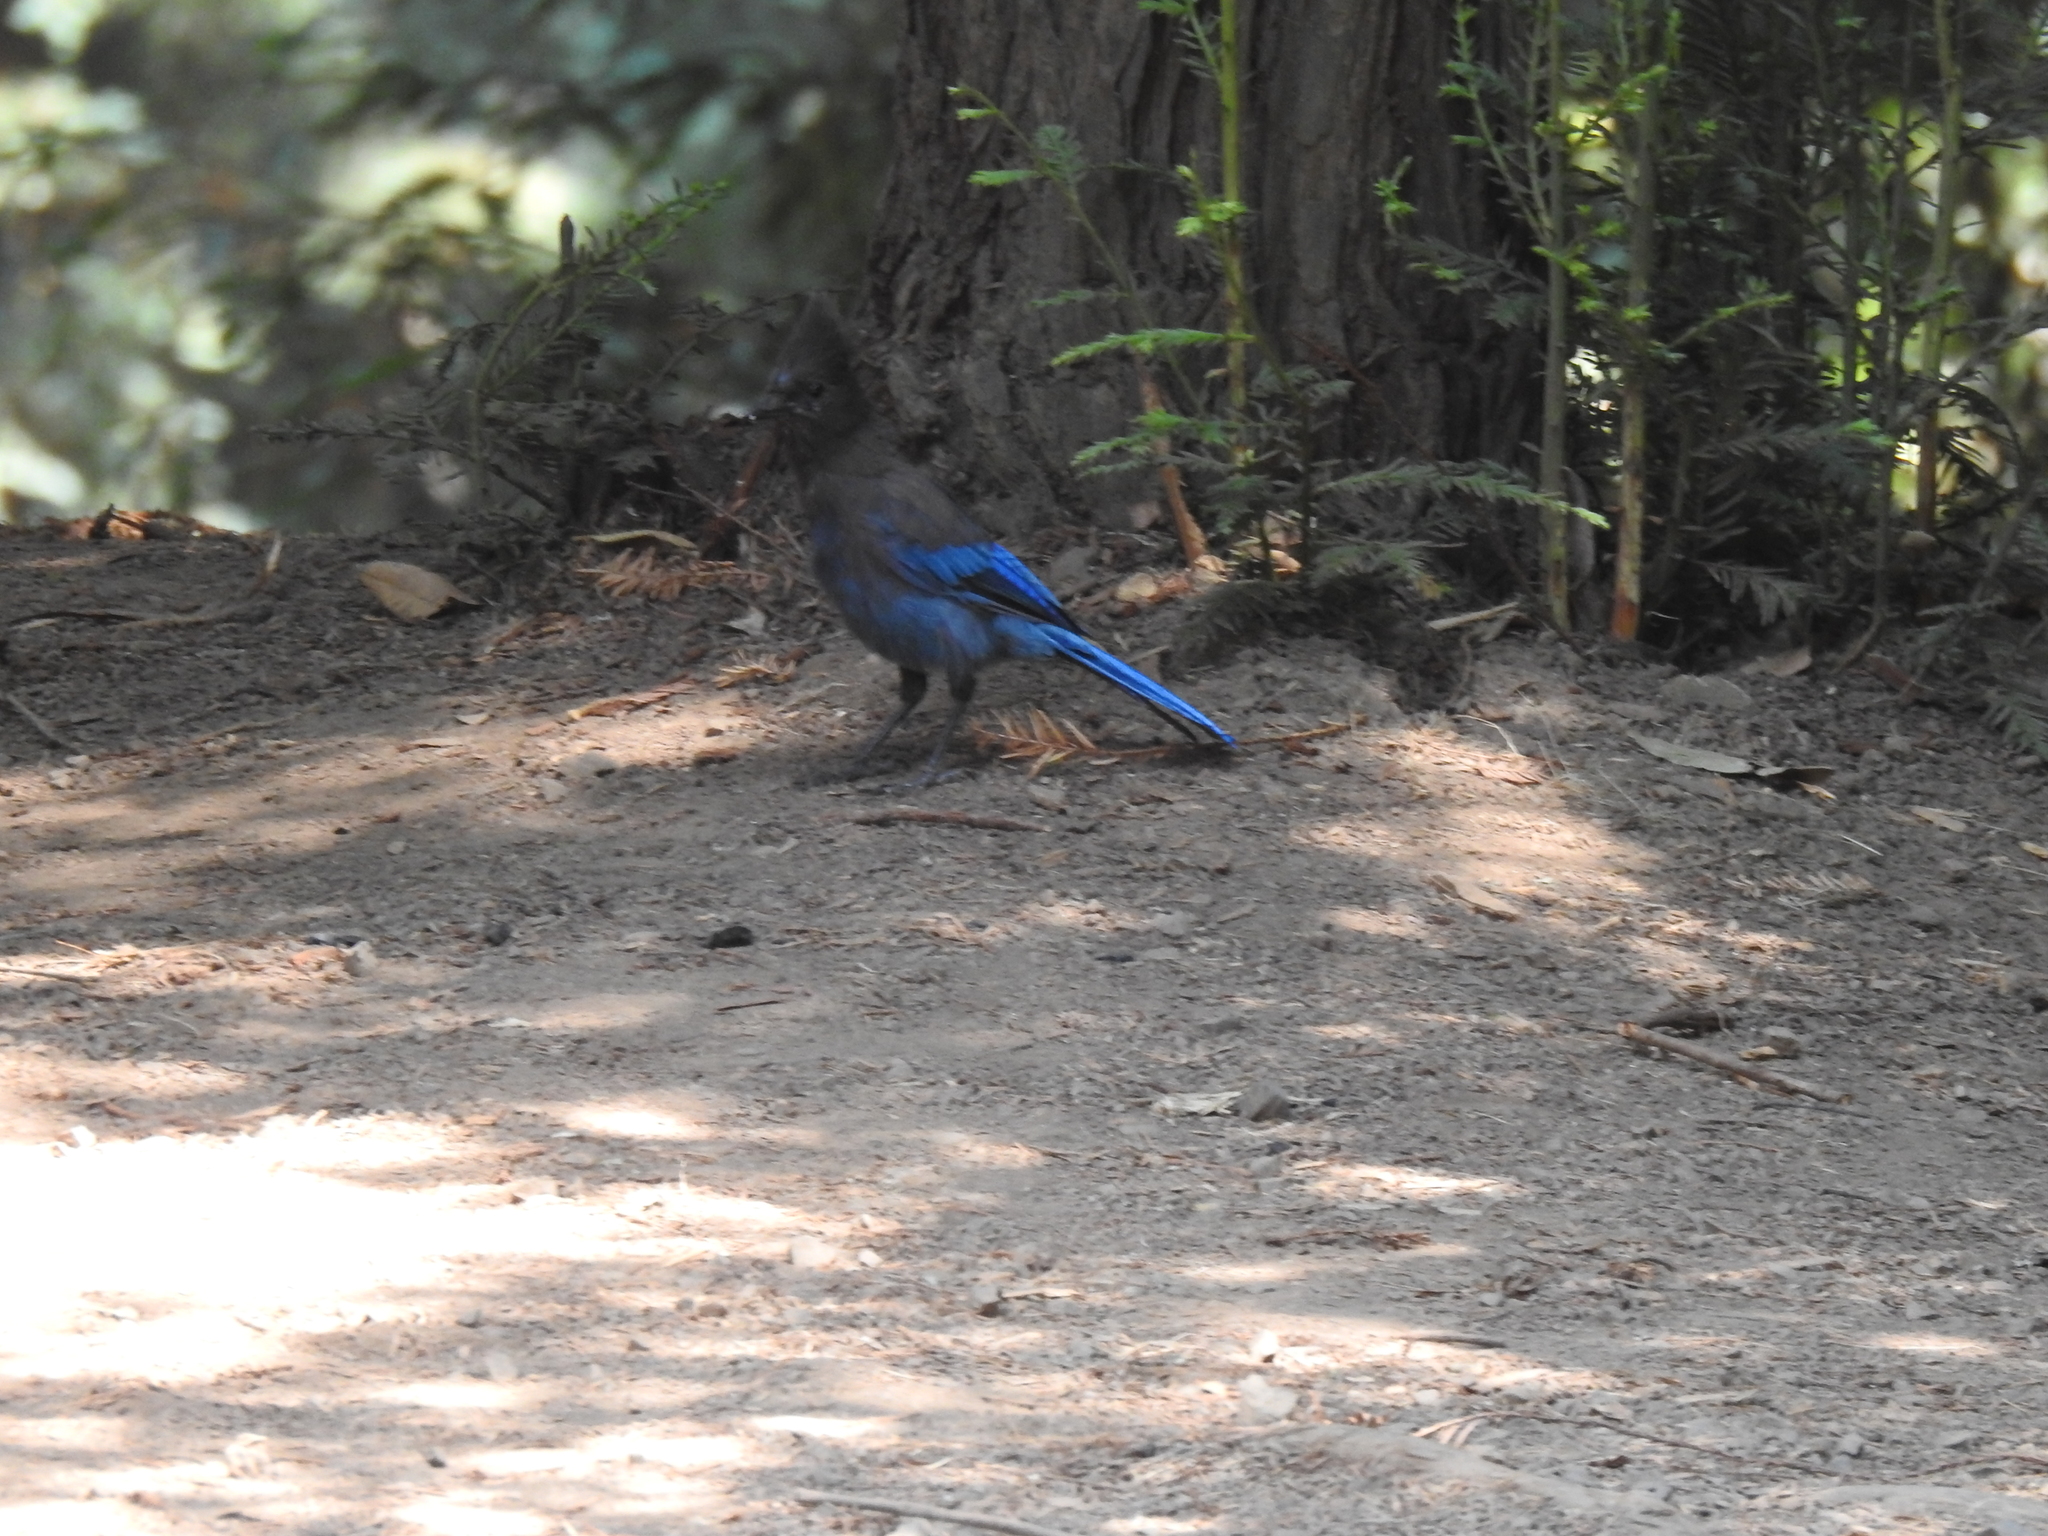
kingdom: Animalia
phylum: Chordata
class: Aves
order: Passeriformes
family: Corvidae
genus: Cyanocitta
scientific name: Cyanocitta stelleri
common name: Steller's jay
